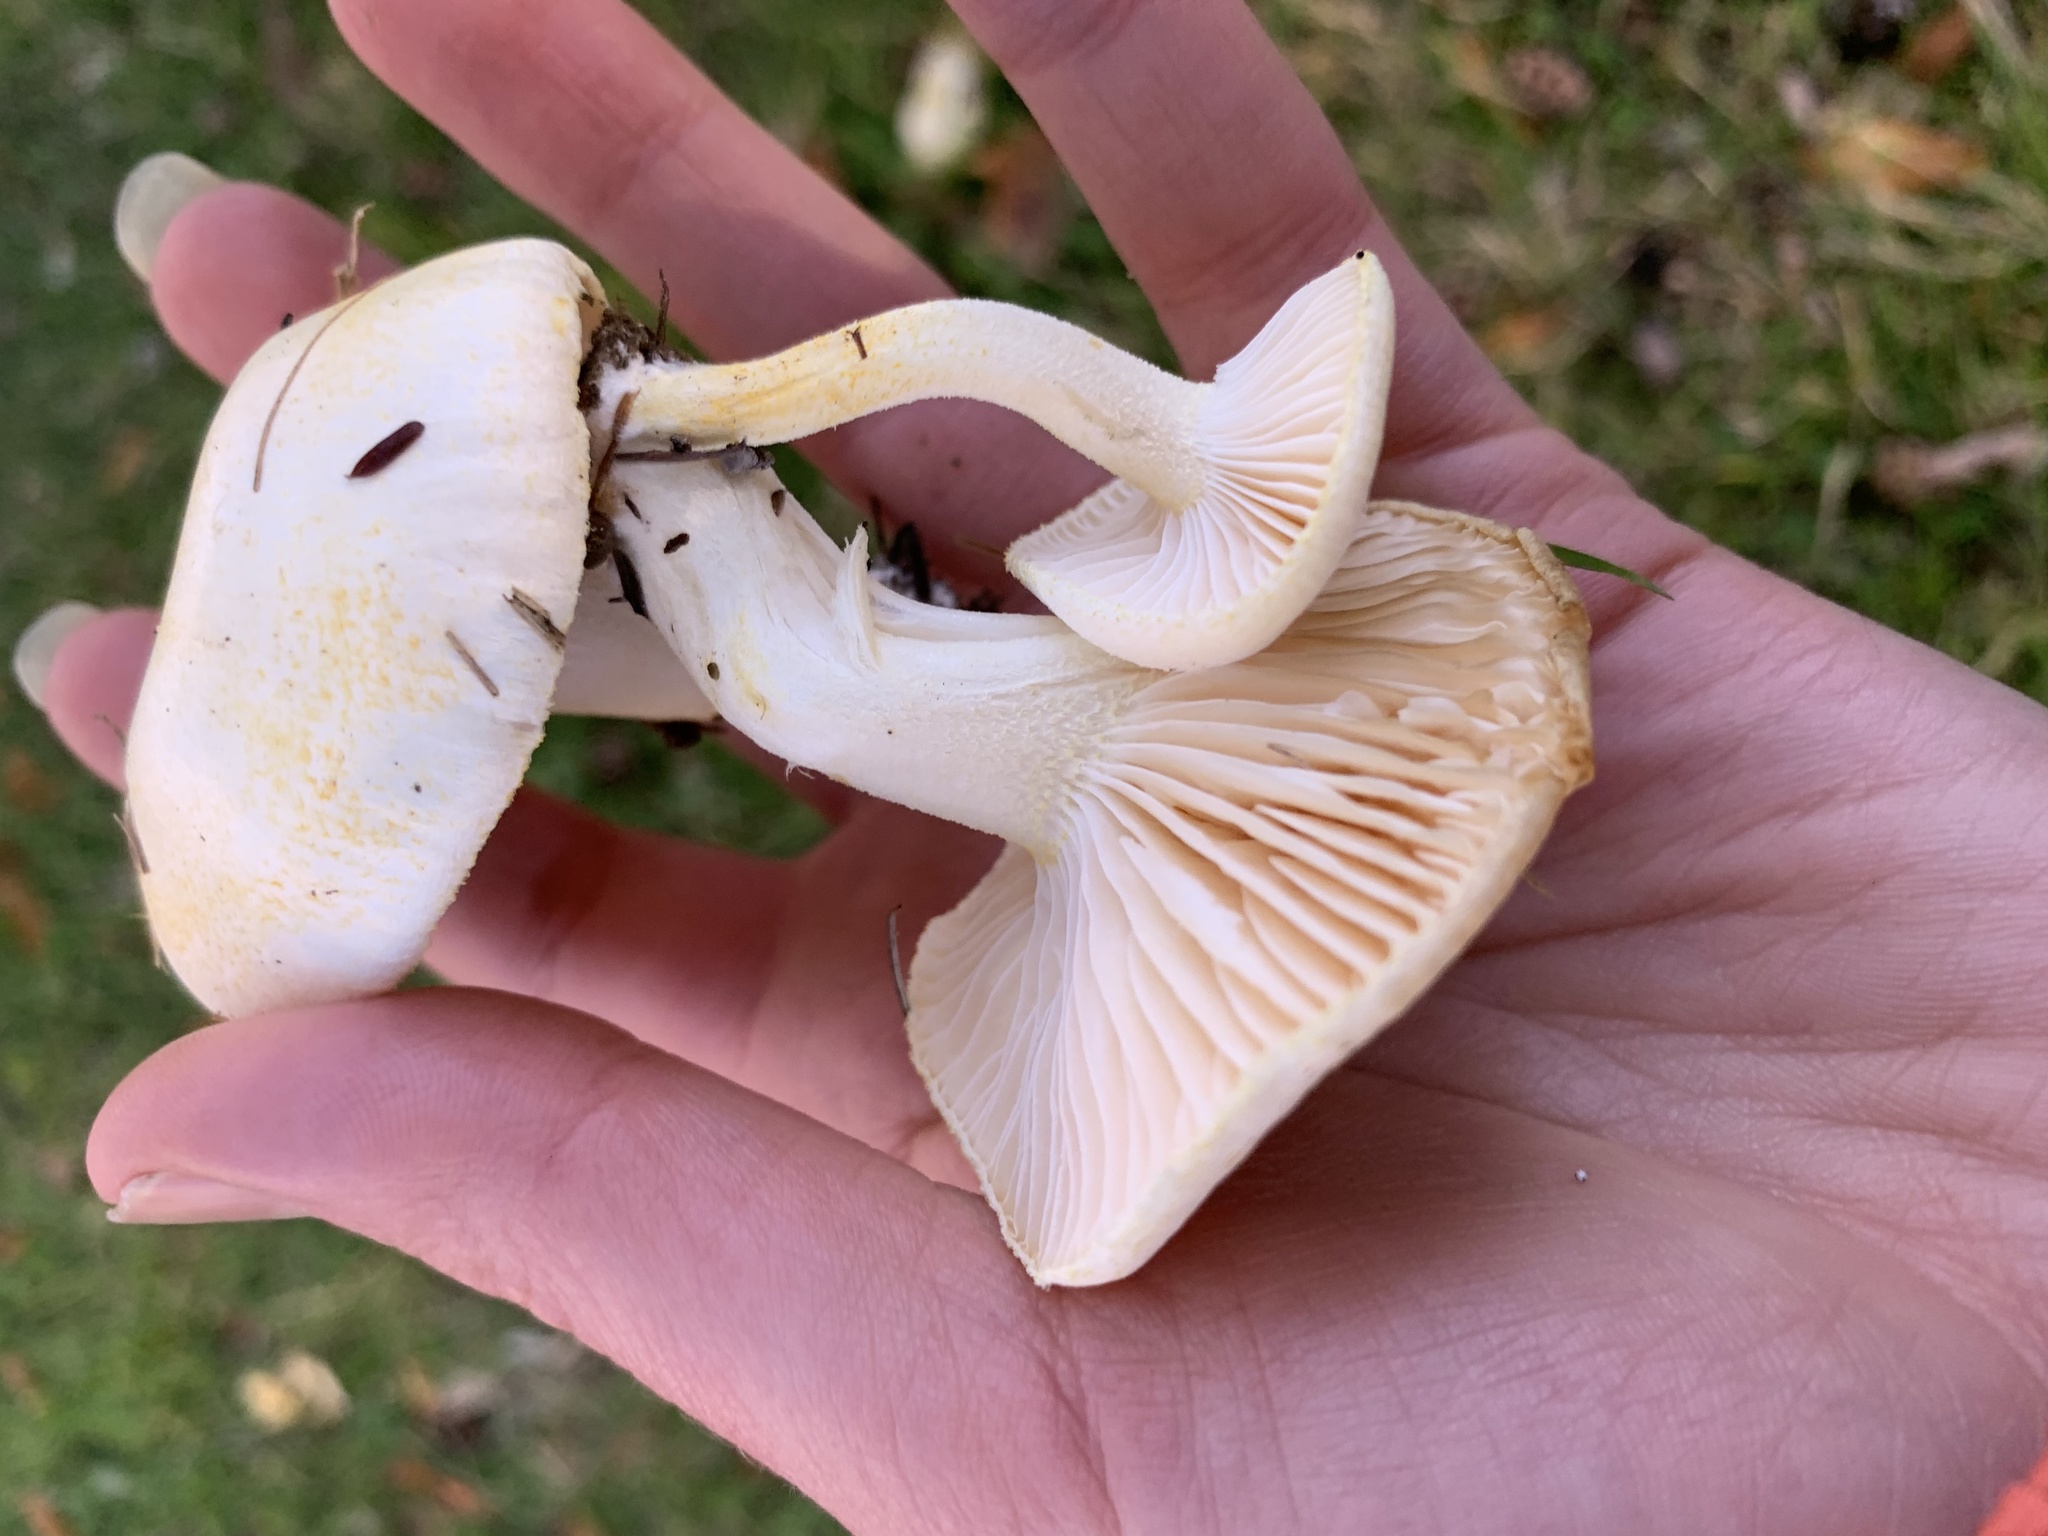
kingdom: Fungi
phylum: Basidiomycota
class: Agaricomycetes
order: Agaricales
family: Hygrophoraceae
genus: Hygrophorus
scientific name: Hygrophorus chrysodon
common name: Gold flecked woodwax
